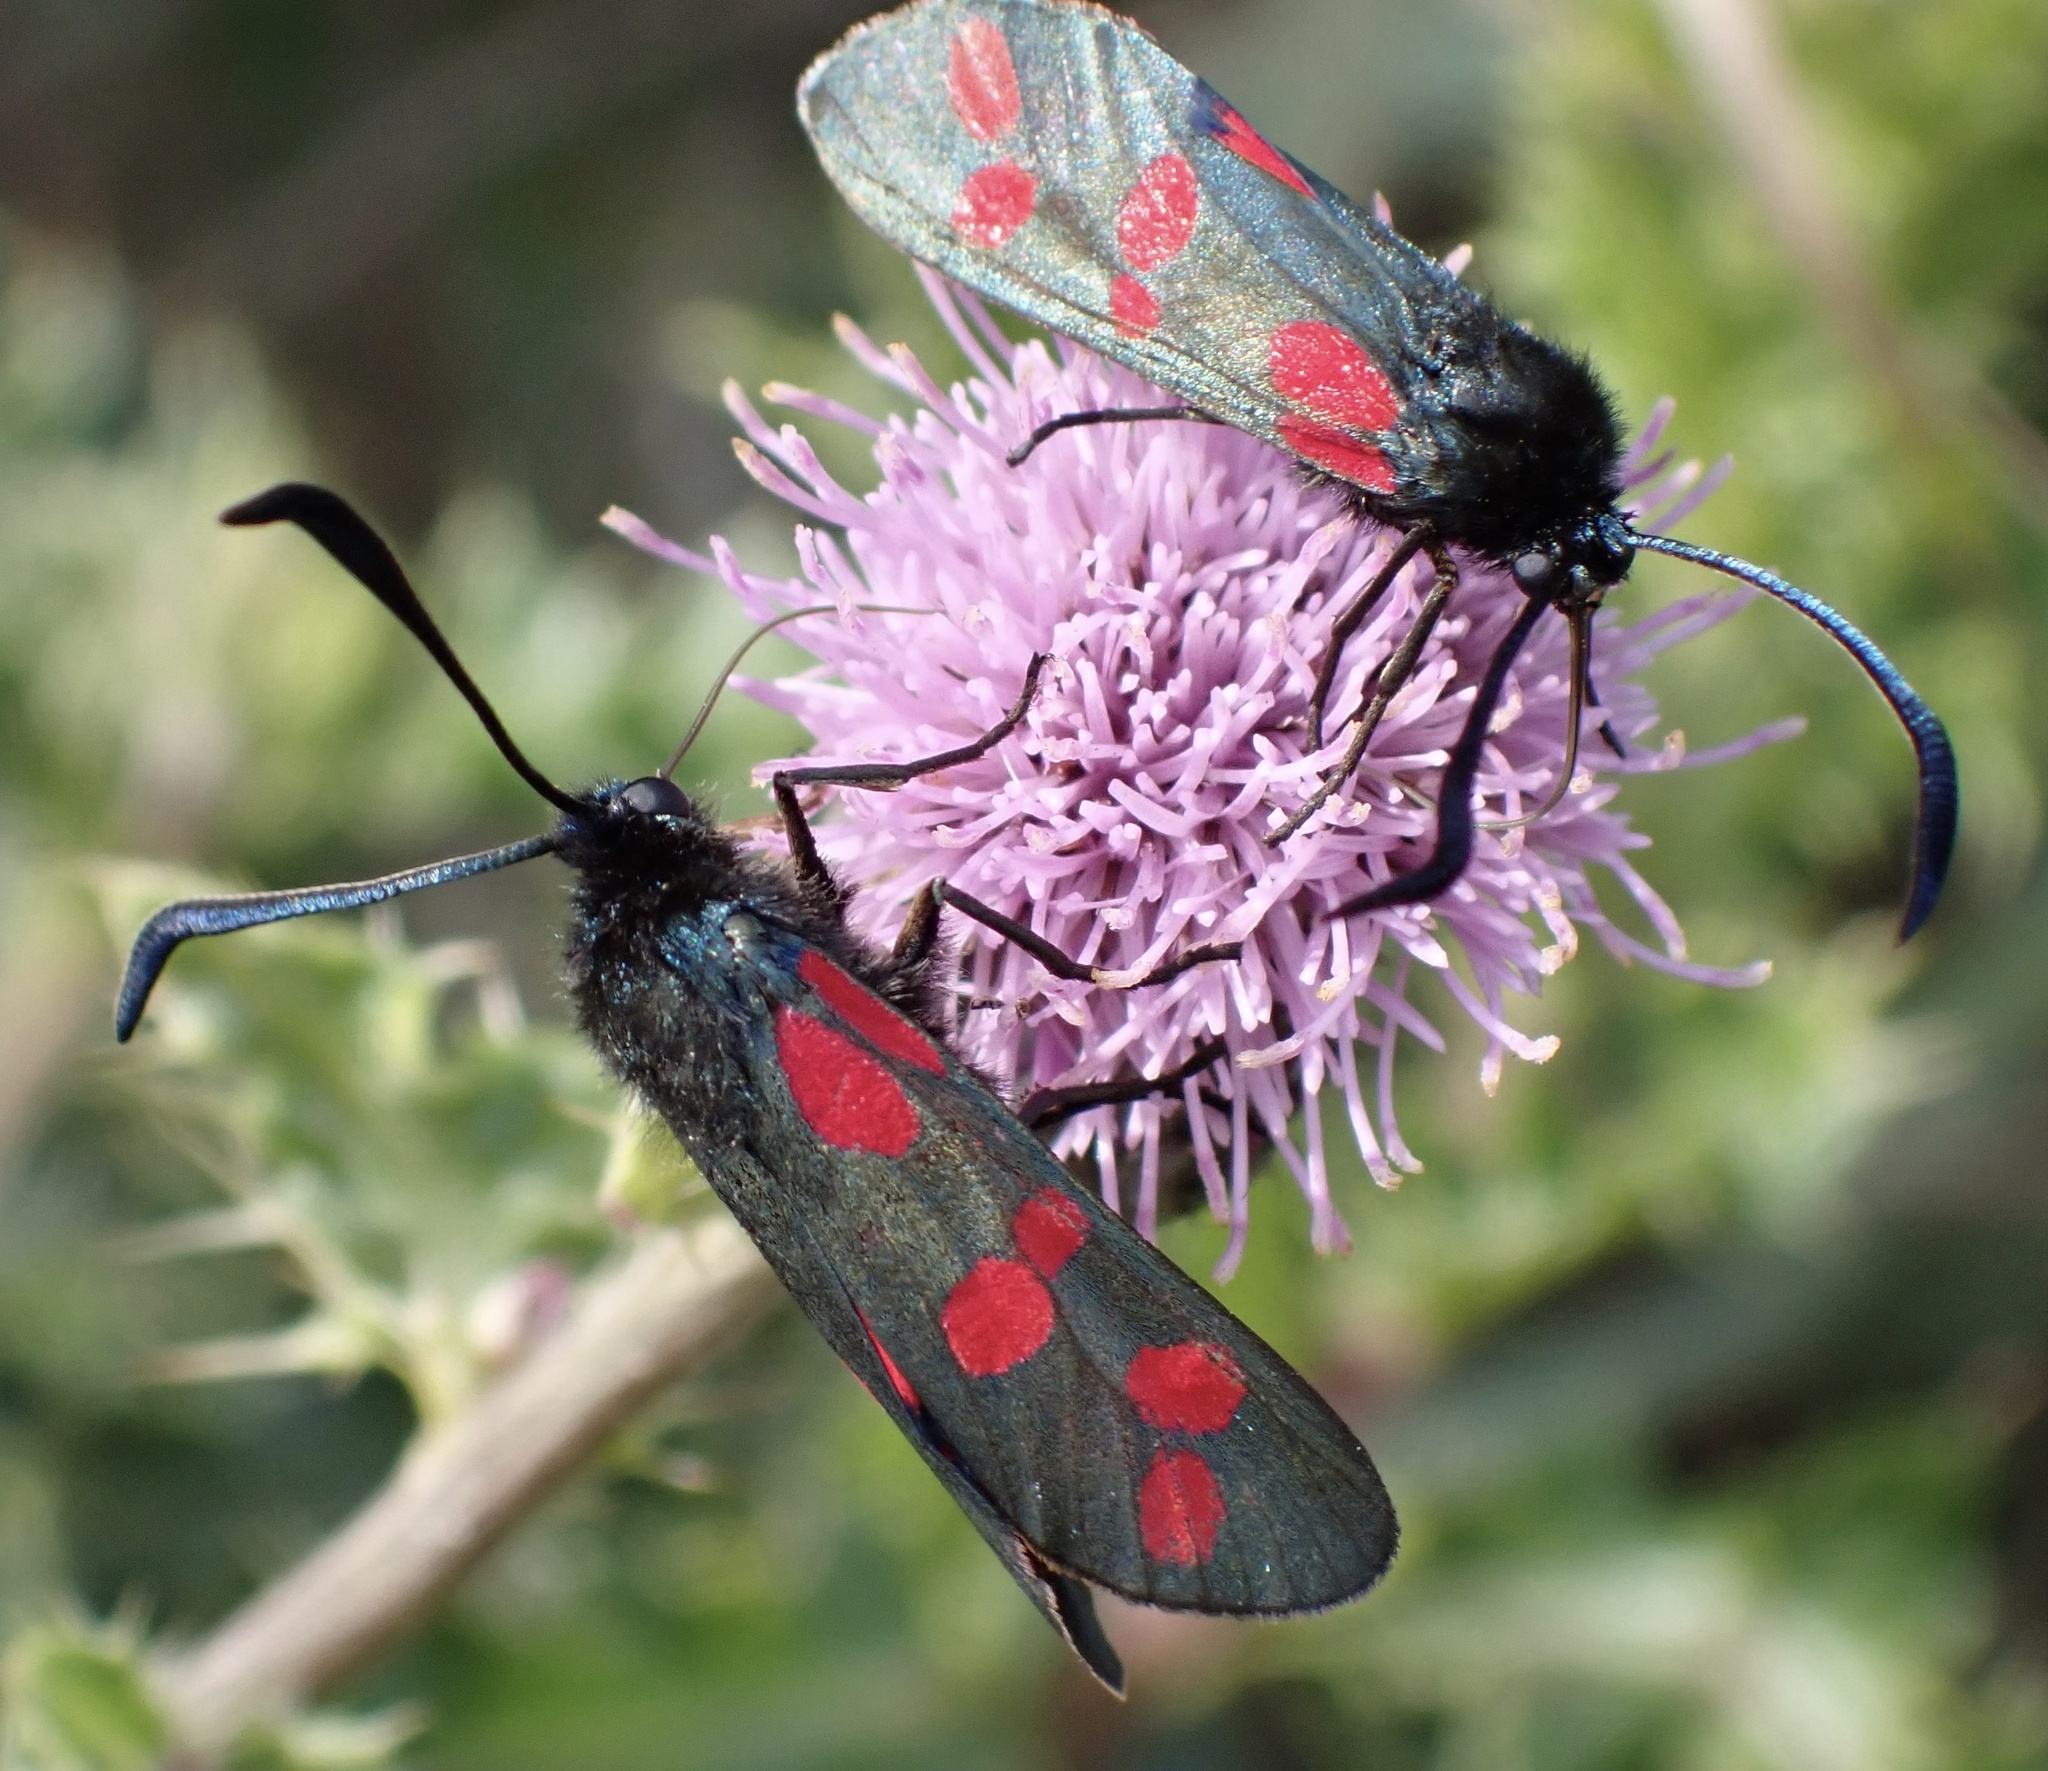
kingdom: Animalia
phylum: Arthropoda
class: Insecta
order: Lepidoptera
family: Zygaenidae
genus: Zygaena
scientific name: Zygaena filipendulae
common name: Six-spot burnet
